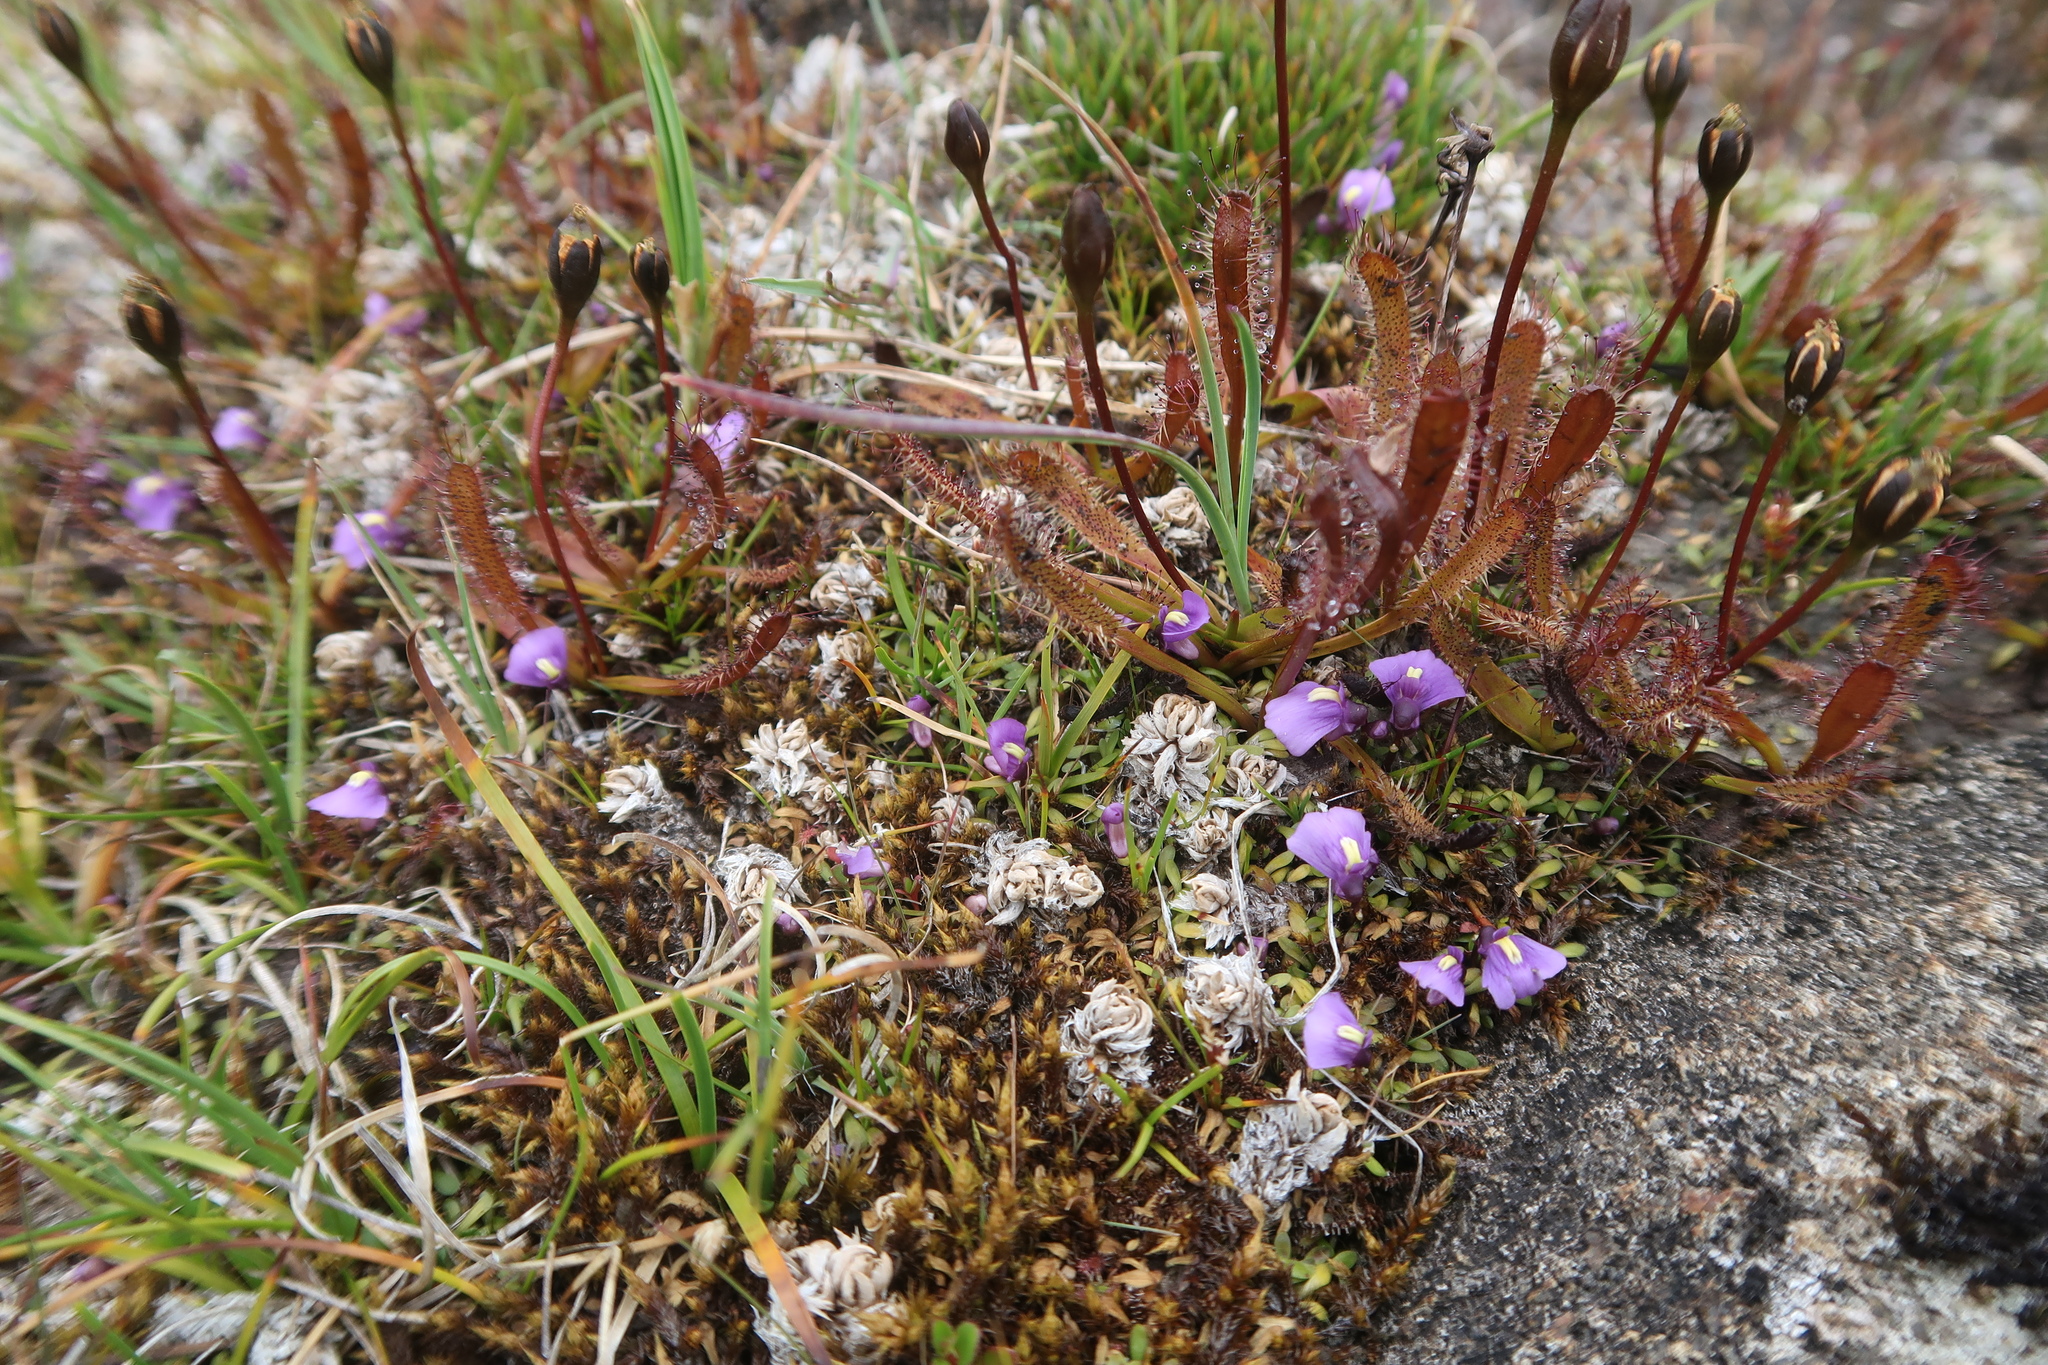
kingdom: Plantae
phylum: Tracheophyta
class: Magnoliopsida
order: Lamiales
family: Lentibulariaceae
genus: Utricularia
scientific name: Utricularia dichotoma
